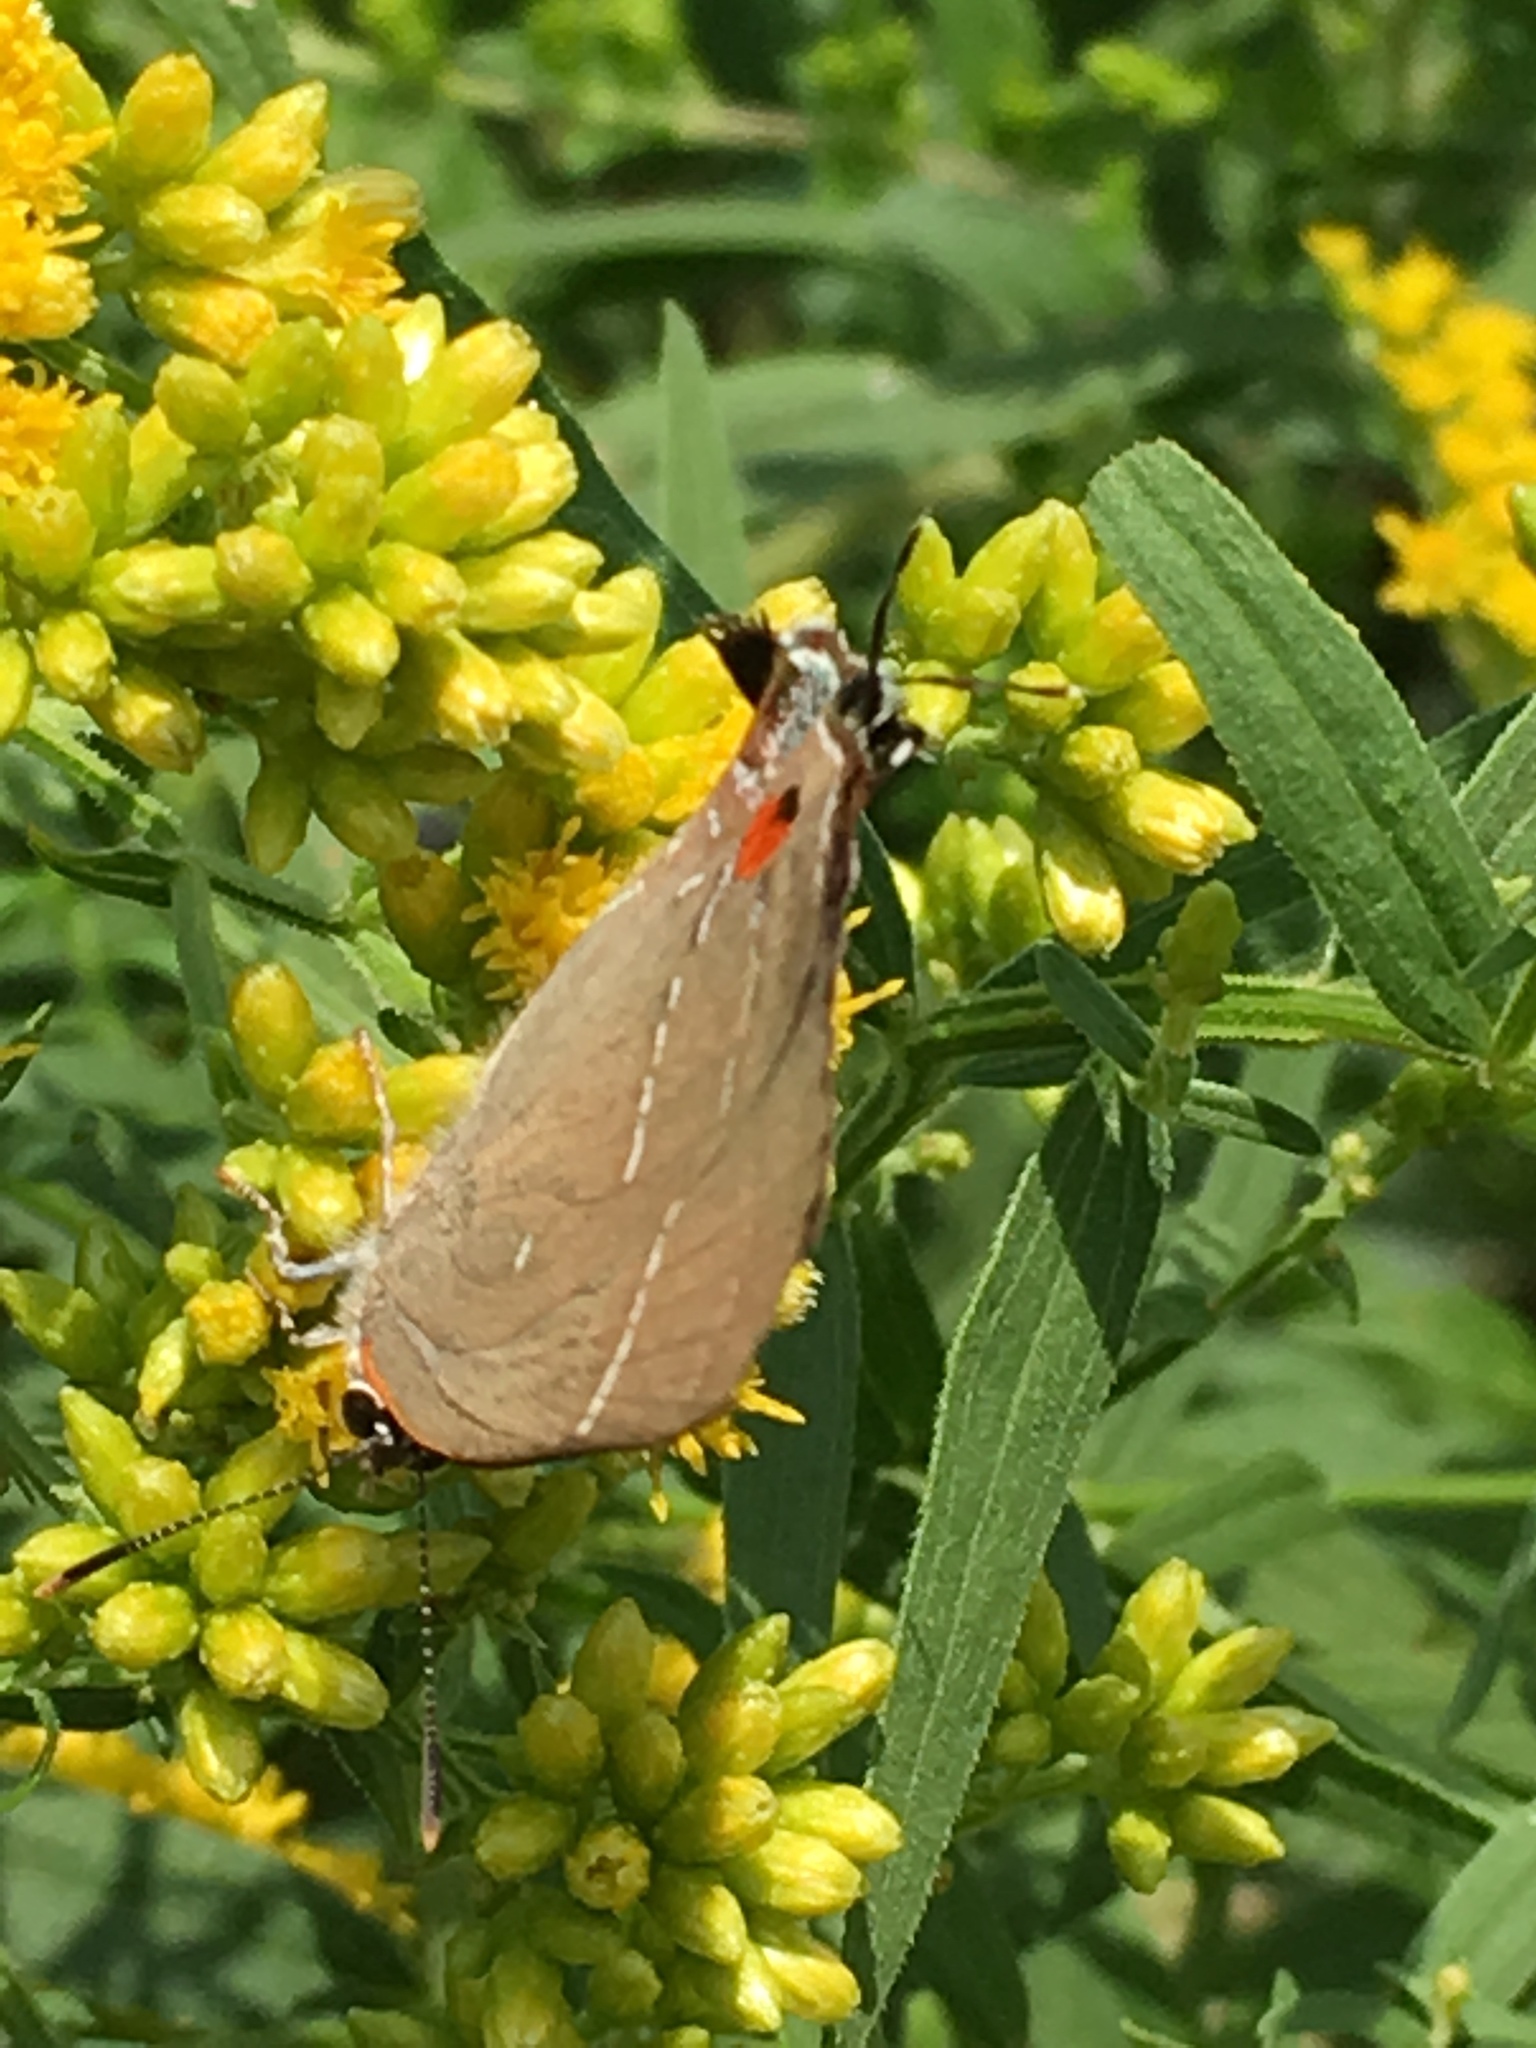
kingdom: Animalia
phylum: Arthropoda
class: Insecta
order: Lepidoptera
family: Lycaenidae
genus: Parrhasius
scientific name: Parrhasius m-album
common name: White m hairstreak
